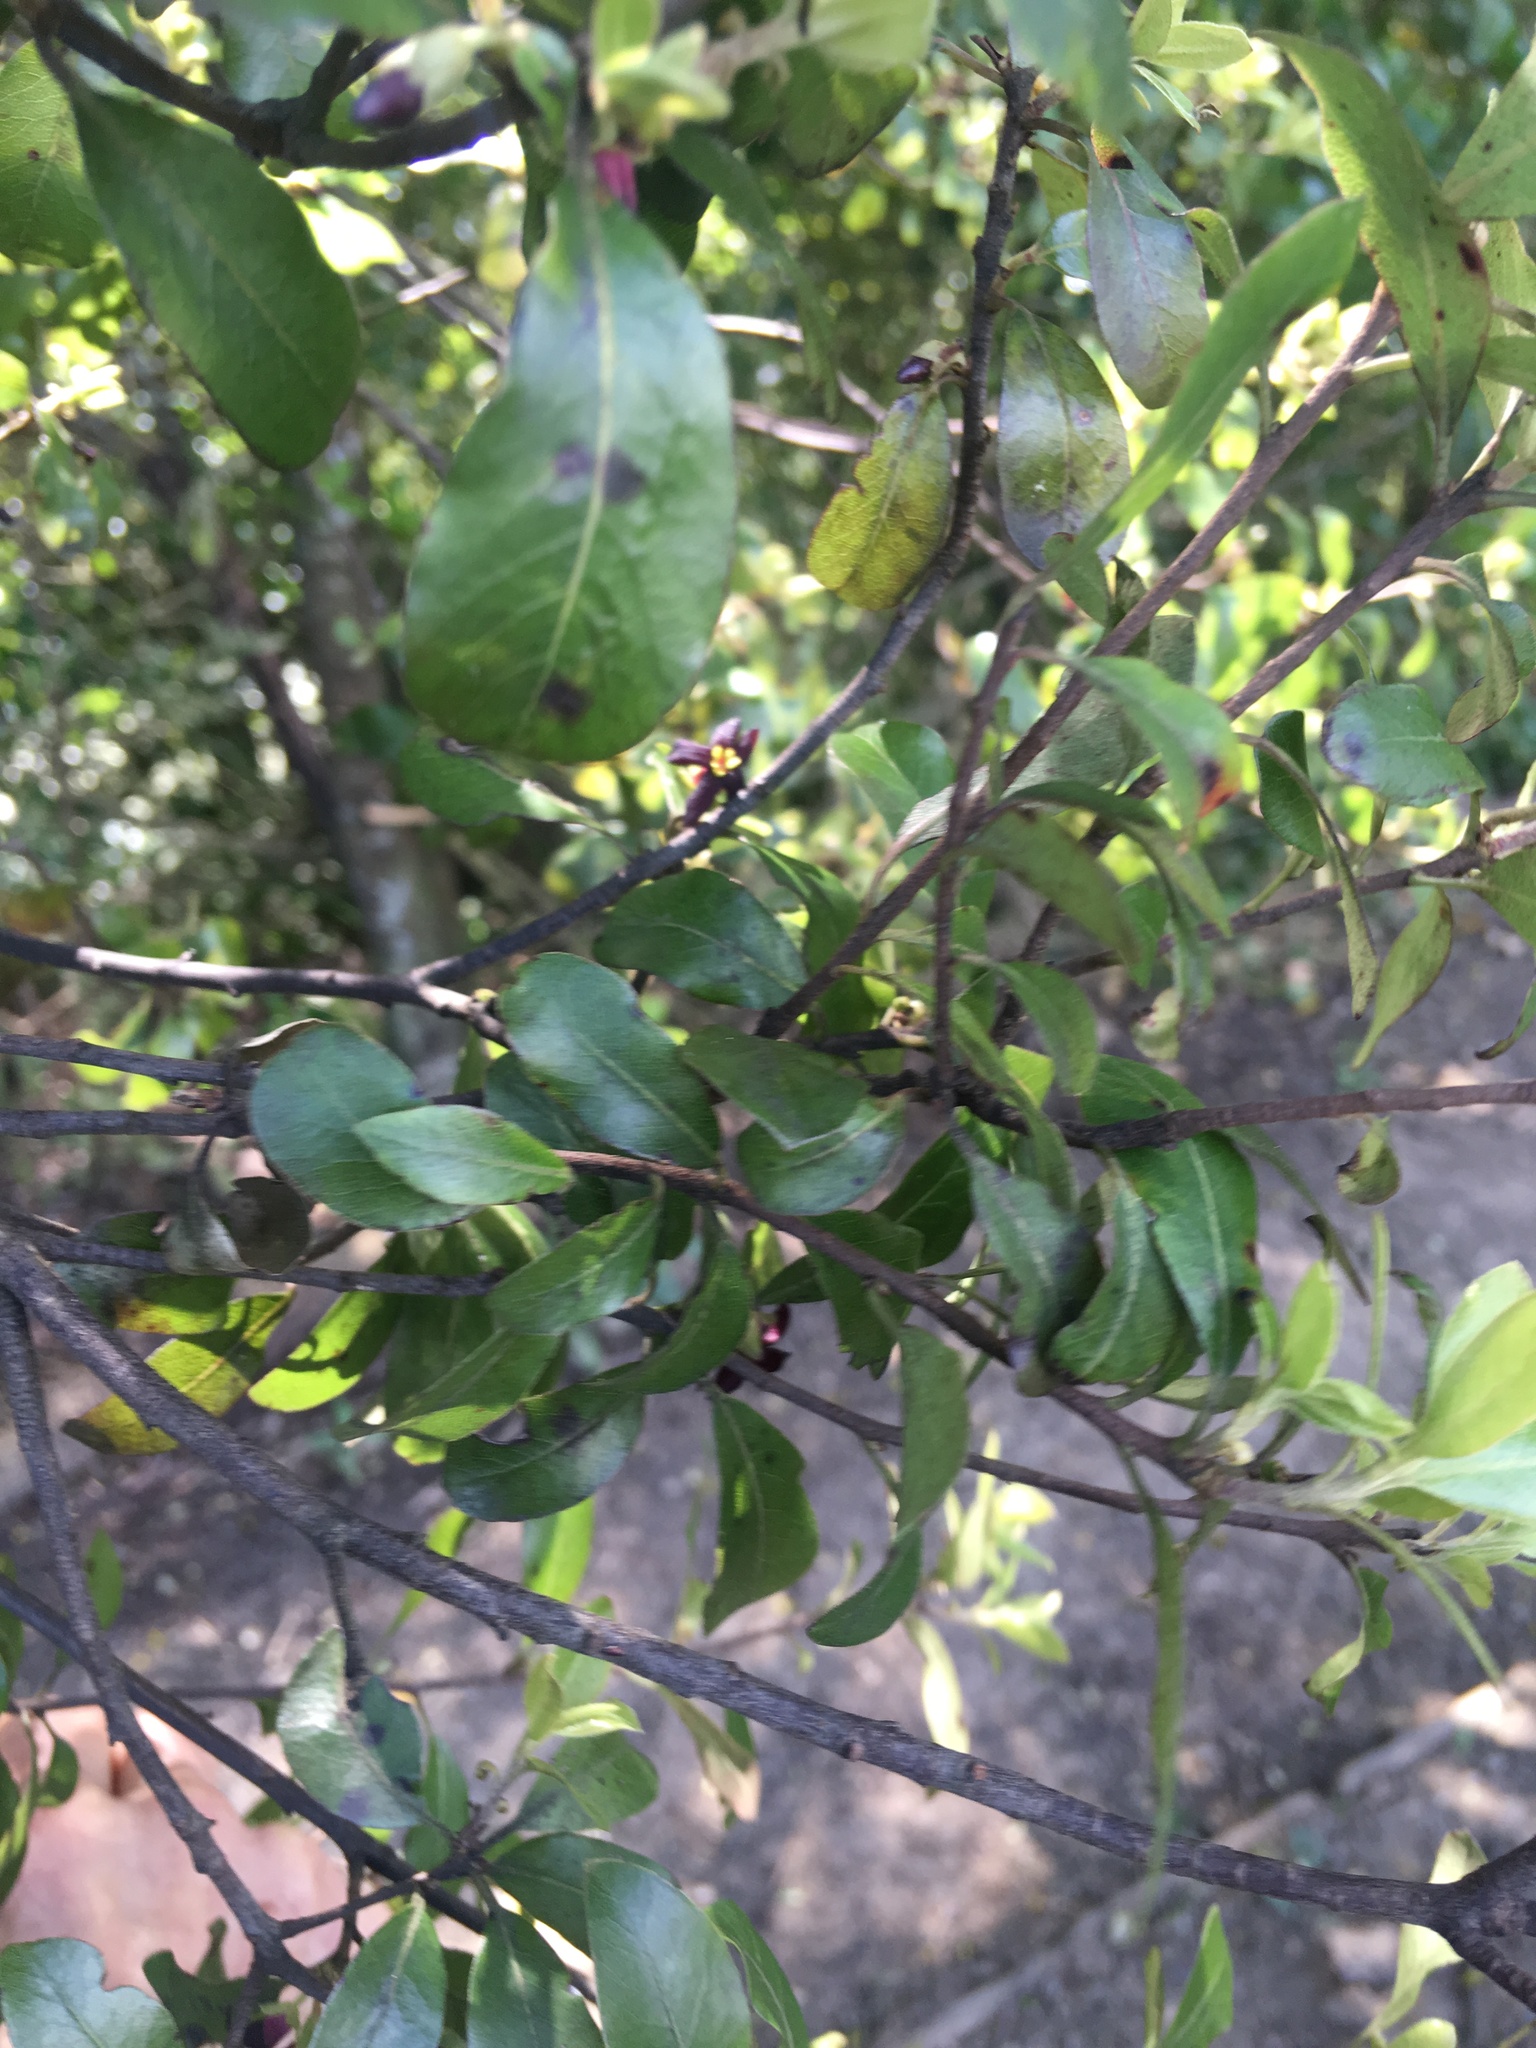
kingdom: Plantae
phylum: Tracheophyta
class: Magnoliopsida
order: Apiales
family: Pittosporaceae
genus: Pittosporum
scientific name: Pittosporum tenuifolium
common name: Kohuhu
